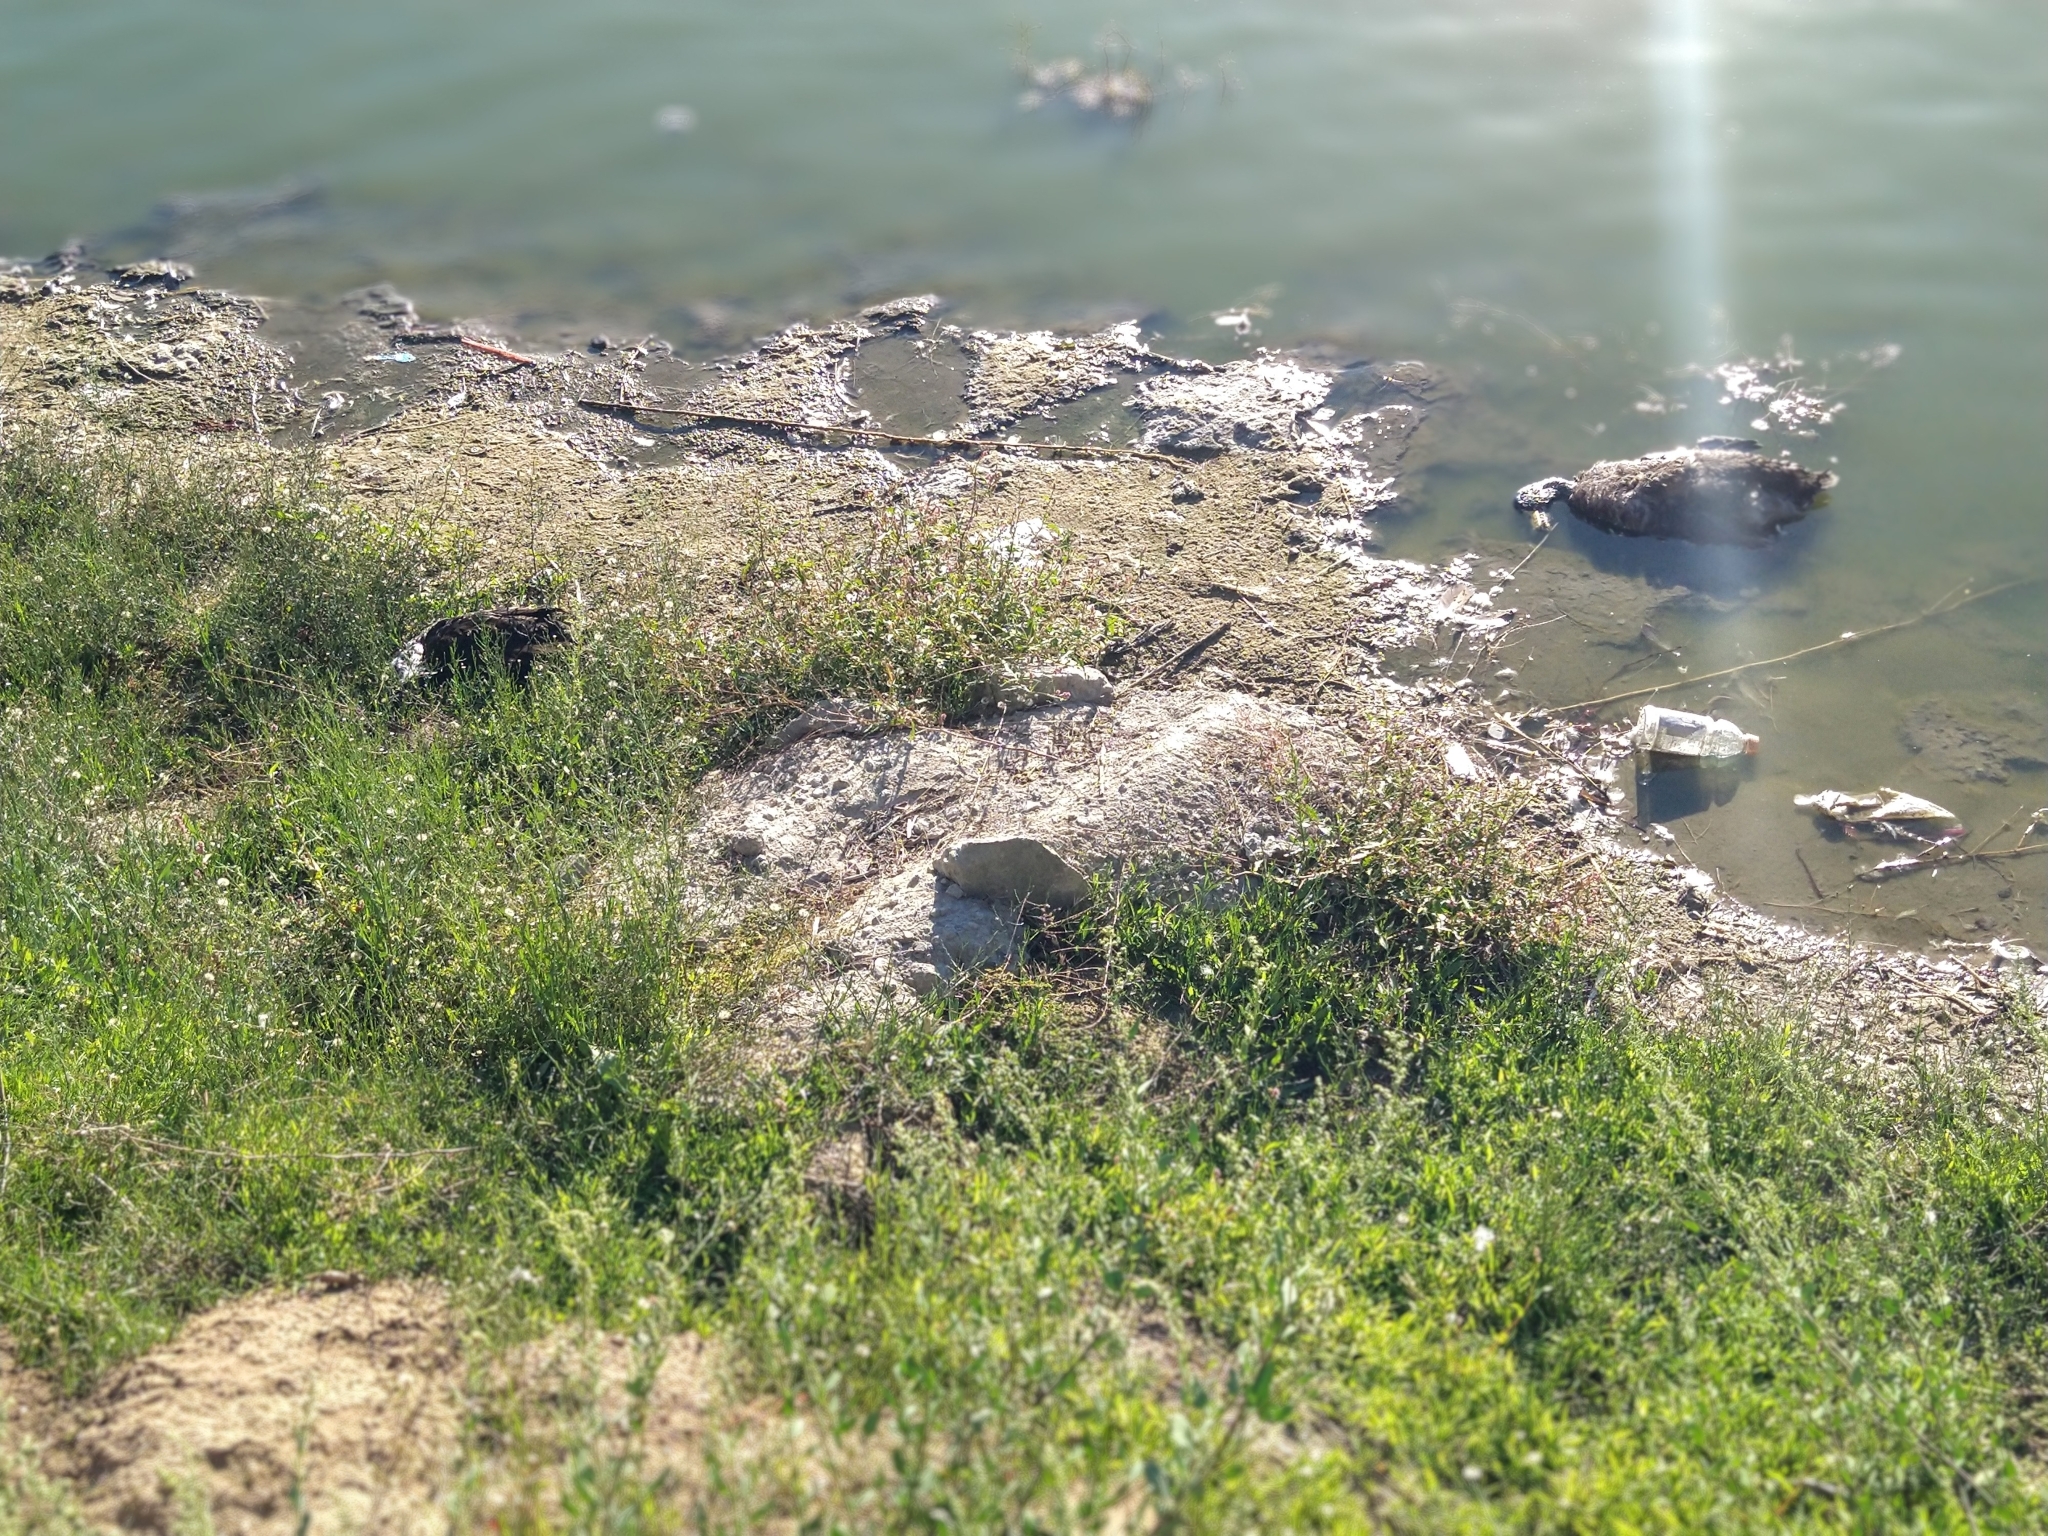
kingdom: Animalia
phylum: Chordata
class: Aves
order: Anseriformes
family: Anatidae
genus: Anas
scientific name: Anas platyrhynchos
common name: Mallard
